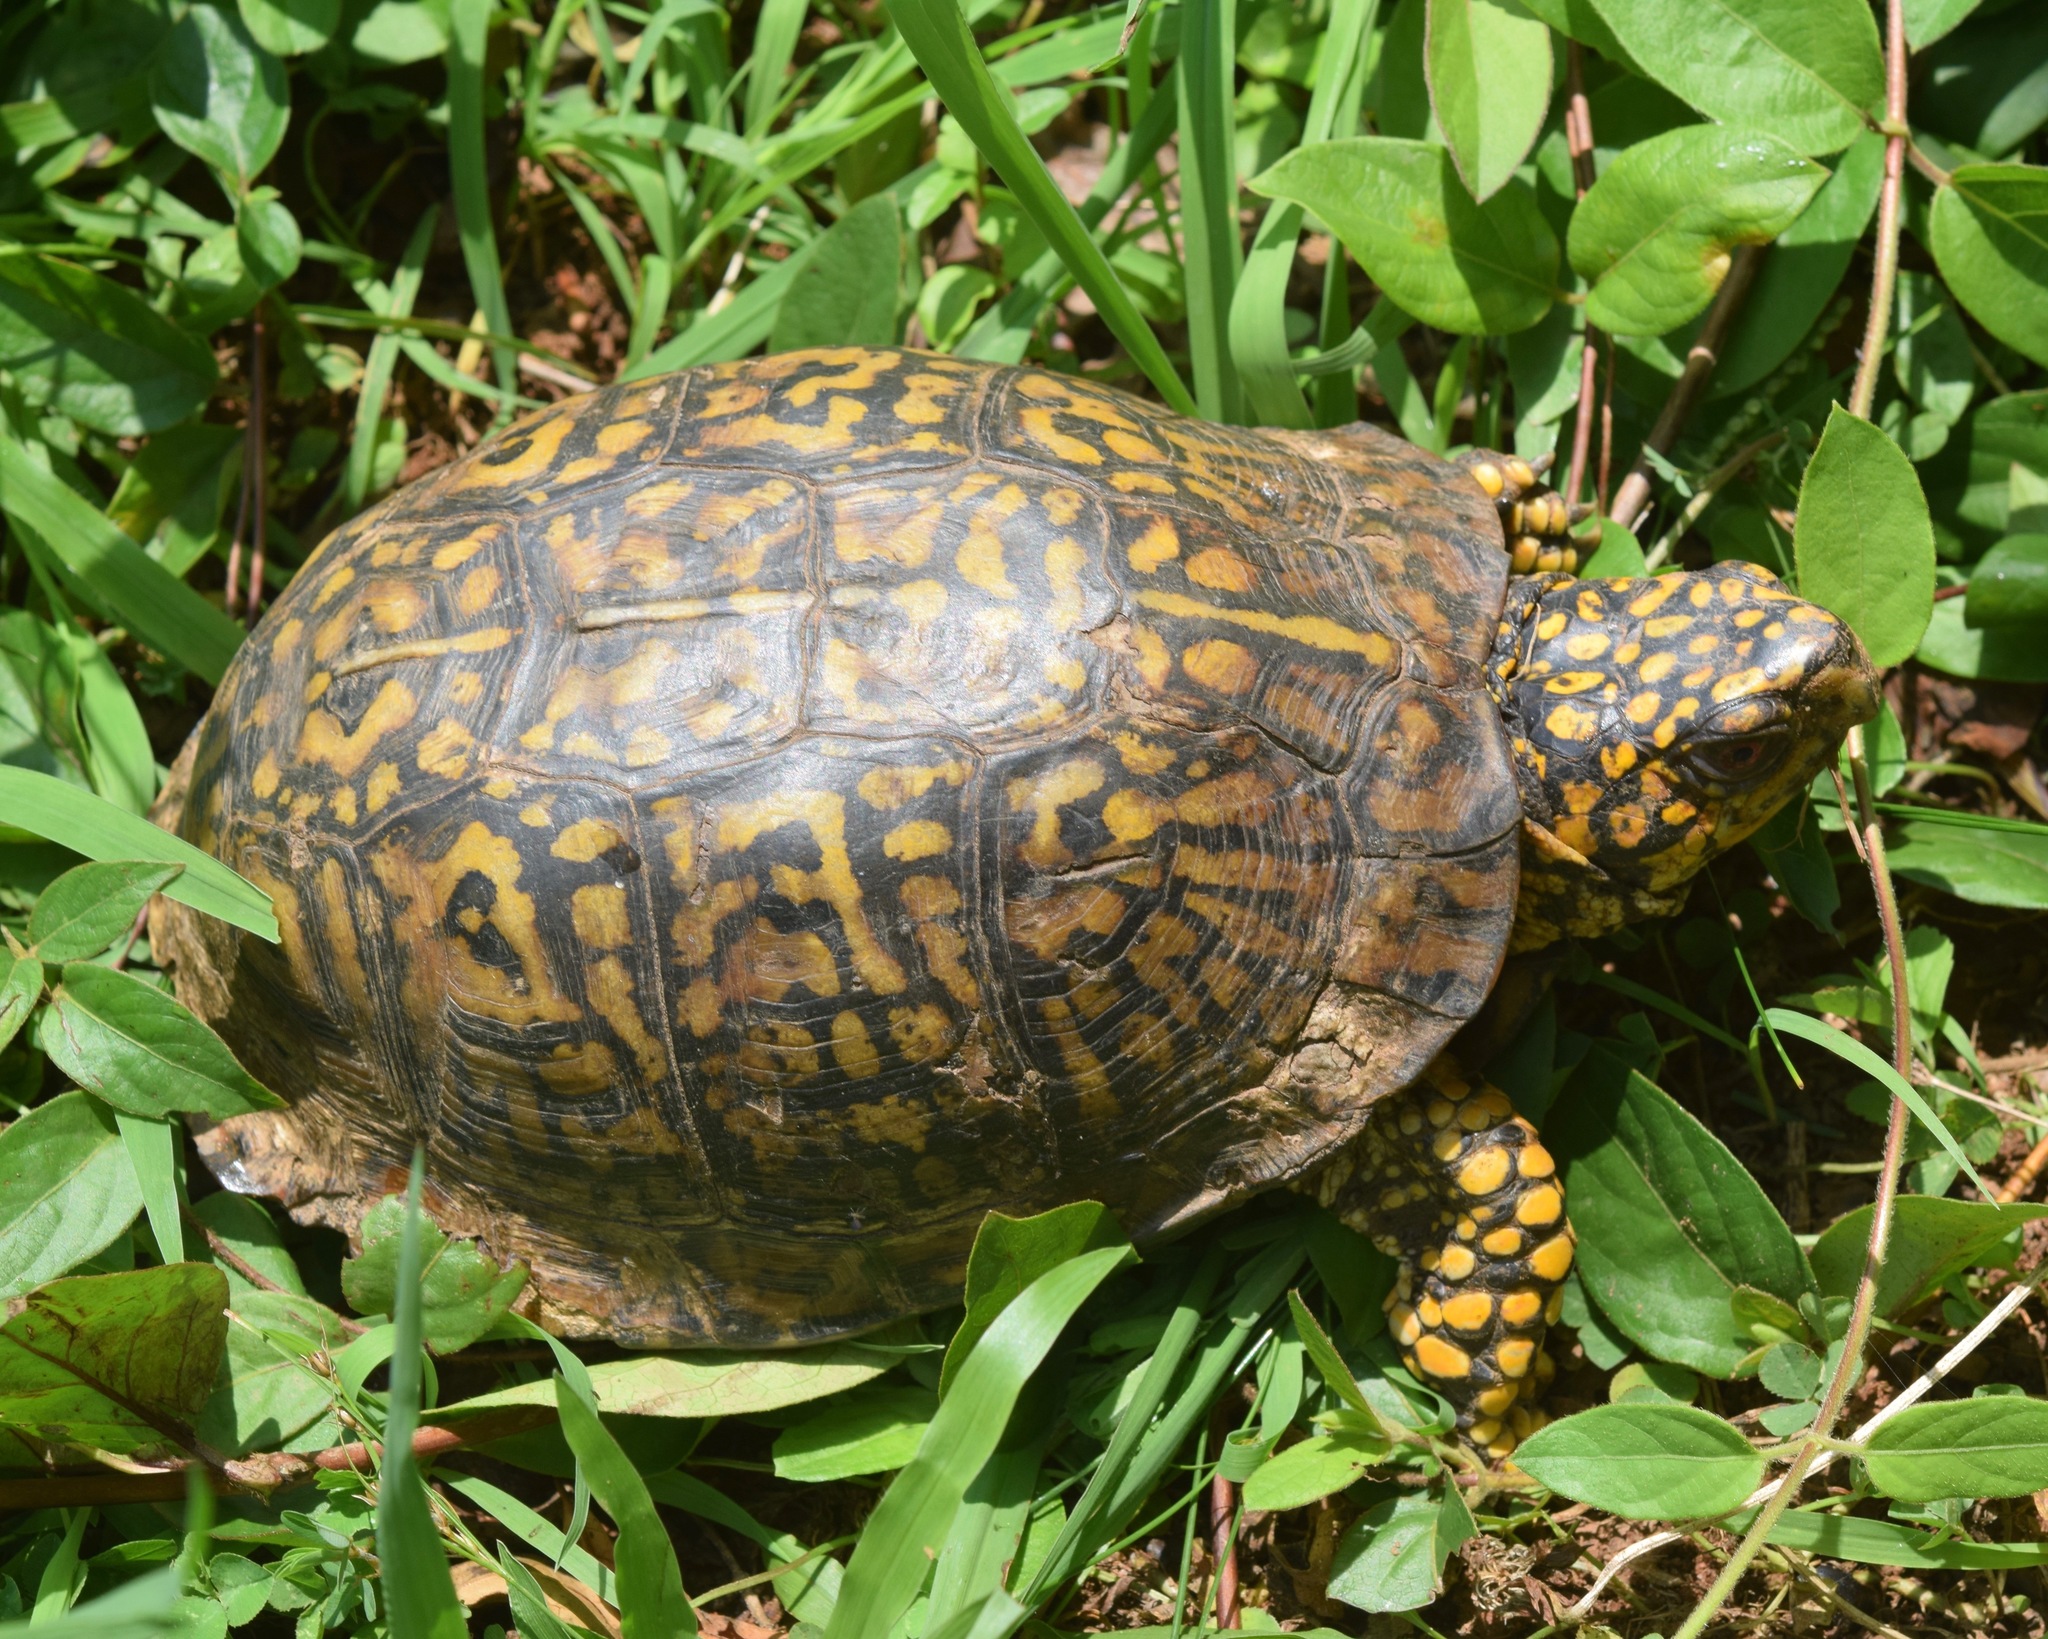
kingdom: Animalia
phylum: Chordata
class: Testudines
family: Emydidae
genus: Terrapene
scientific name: Terrapene carolina
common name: Common box turtle
